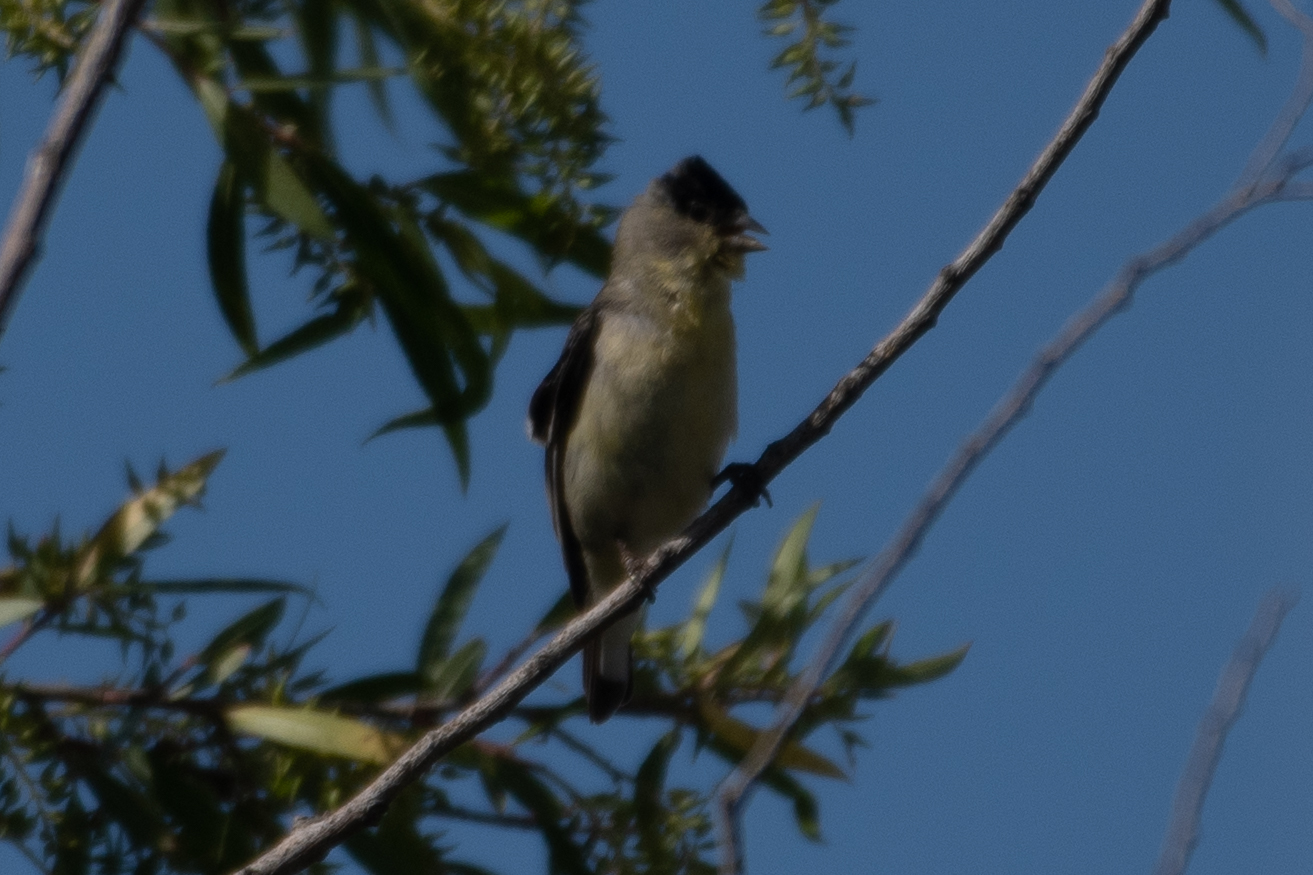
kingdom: Animalia
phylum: Chordata
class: Aves
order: Passeriformes
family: Fringillidae
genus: Spinus
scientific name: Spinus lawrencei
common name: Lawrence's goldfinch
